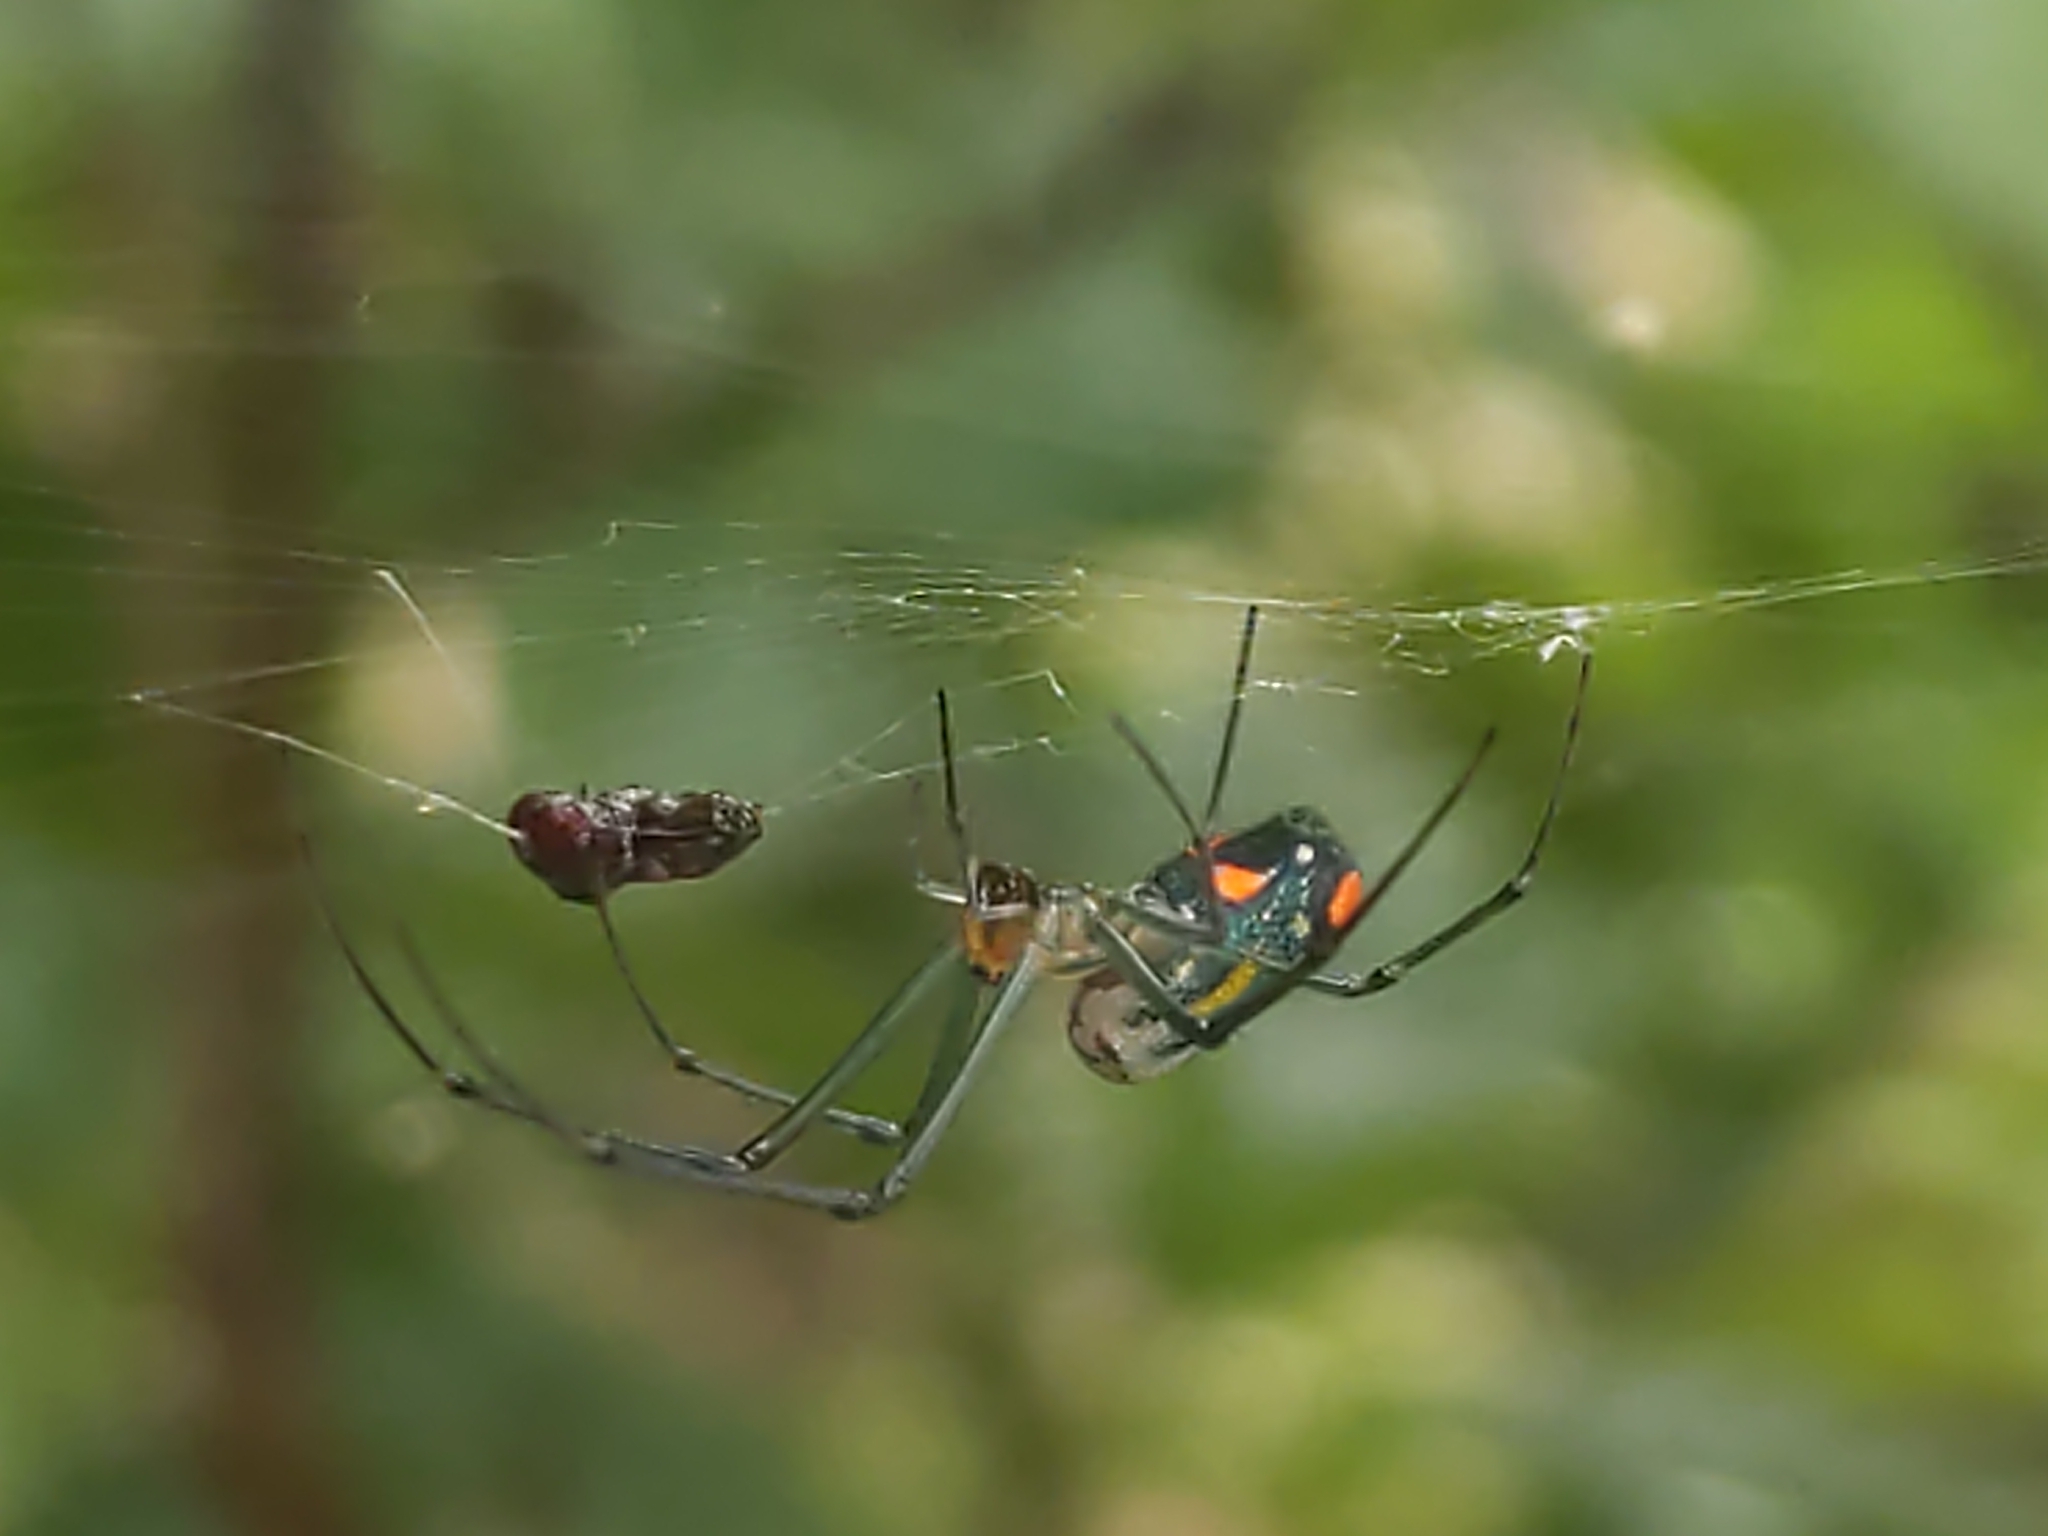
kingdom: Animalia
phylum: Arthropoda
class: Arachnida
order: Araneae
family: Tetragnathidae
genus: Leucauge
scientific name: Leucauge argyrobapta
